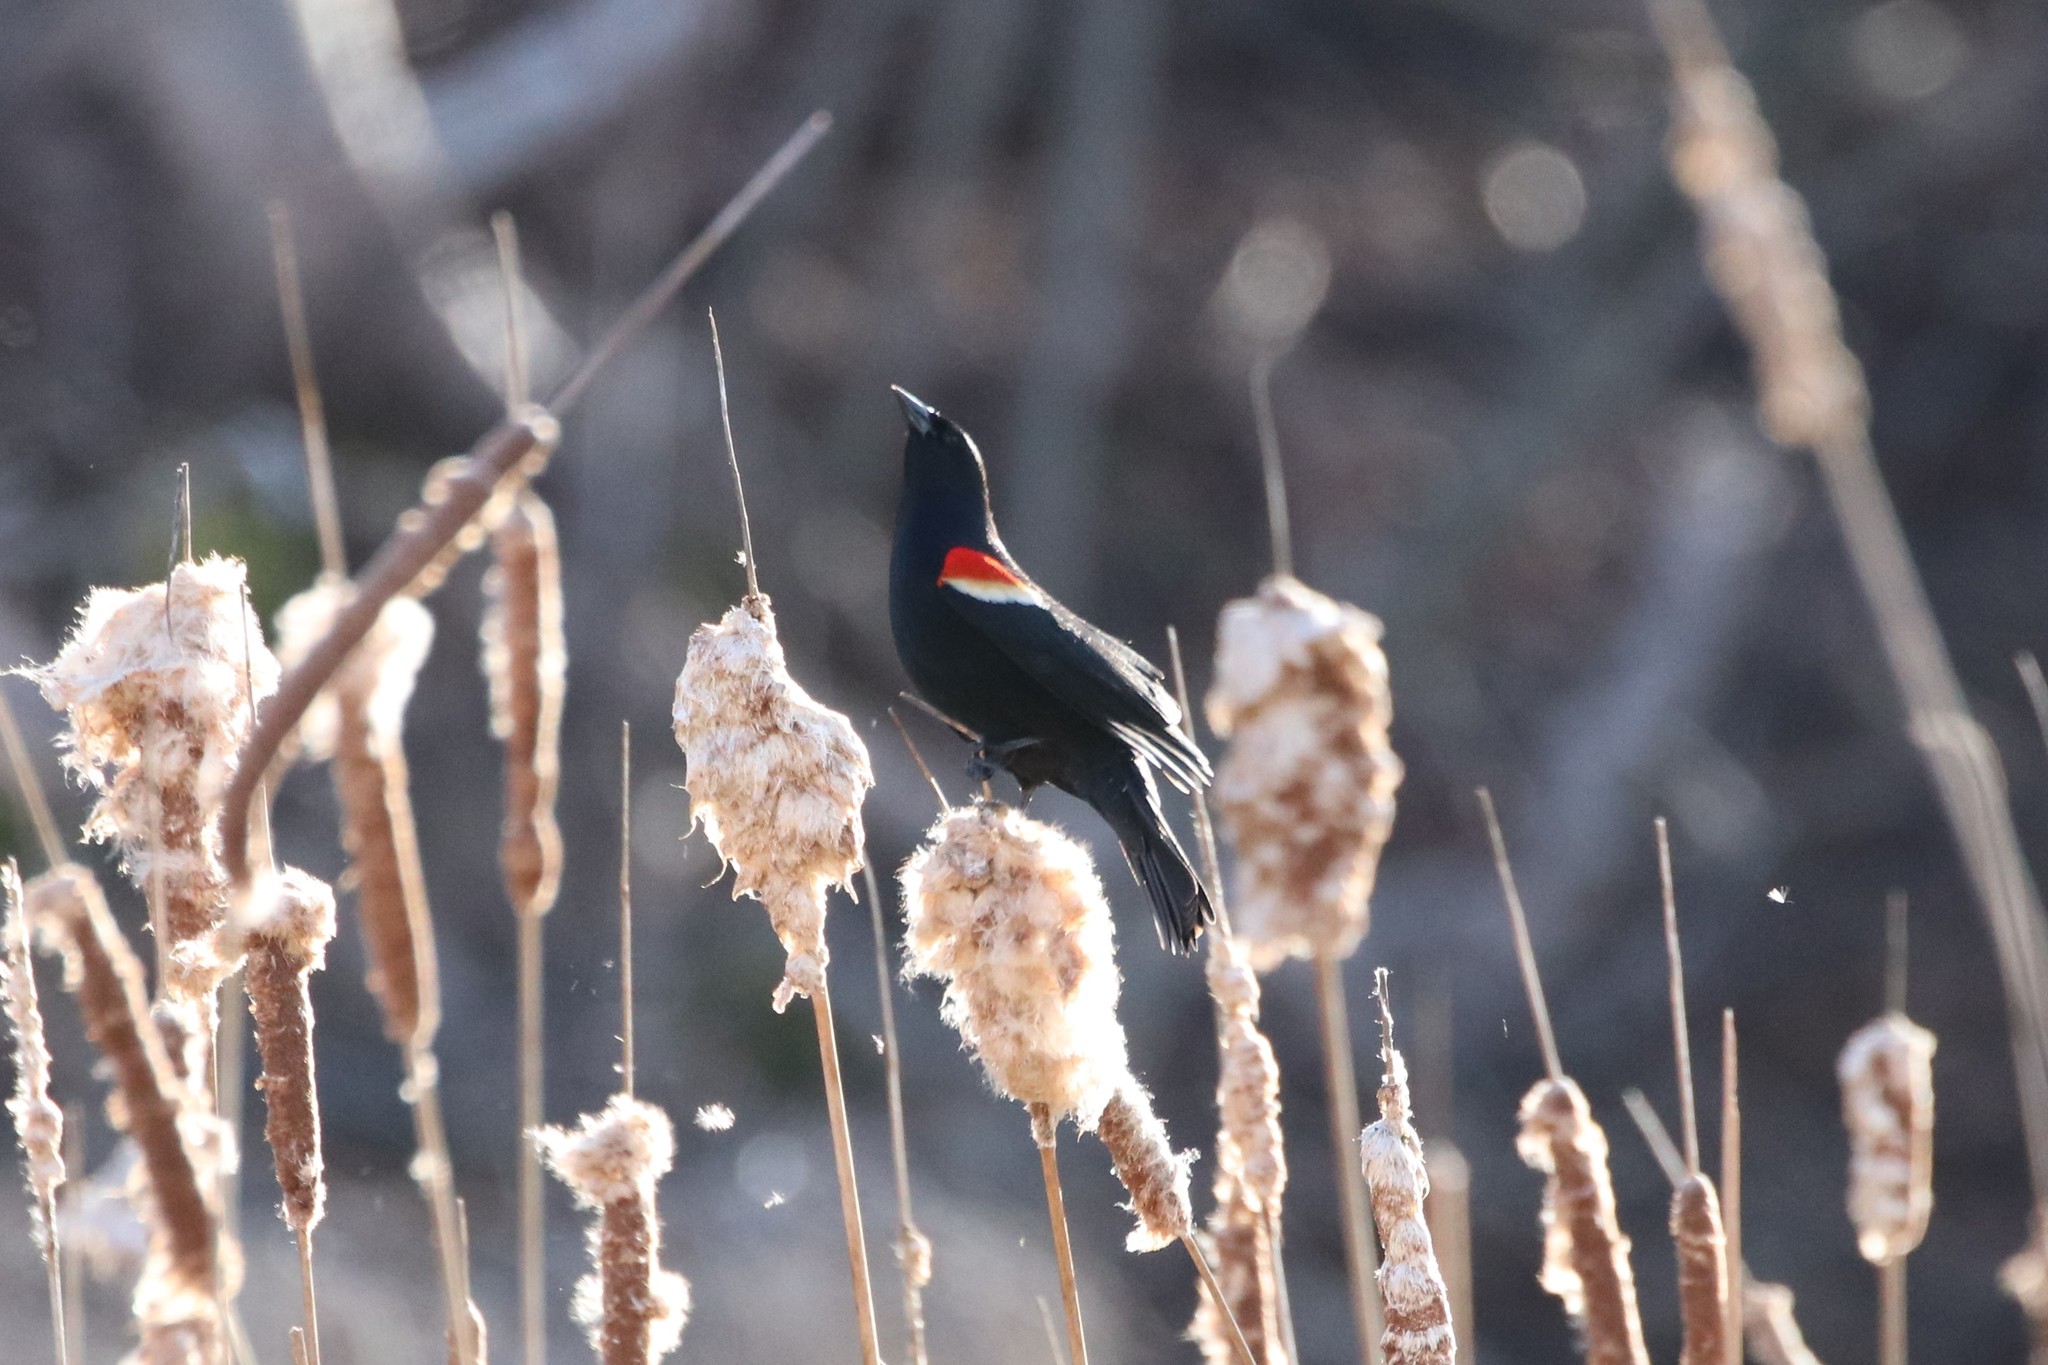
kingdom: Animalia
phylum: Chordata
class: Aves
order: Passeriformes
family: Icteridae
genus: Agelaius
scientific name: Agelaius phoeniceus
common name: Red-winged blackbird
